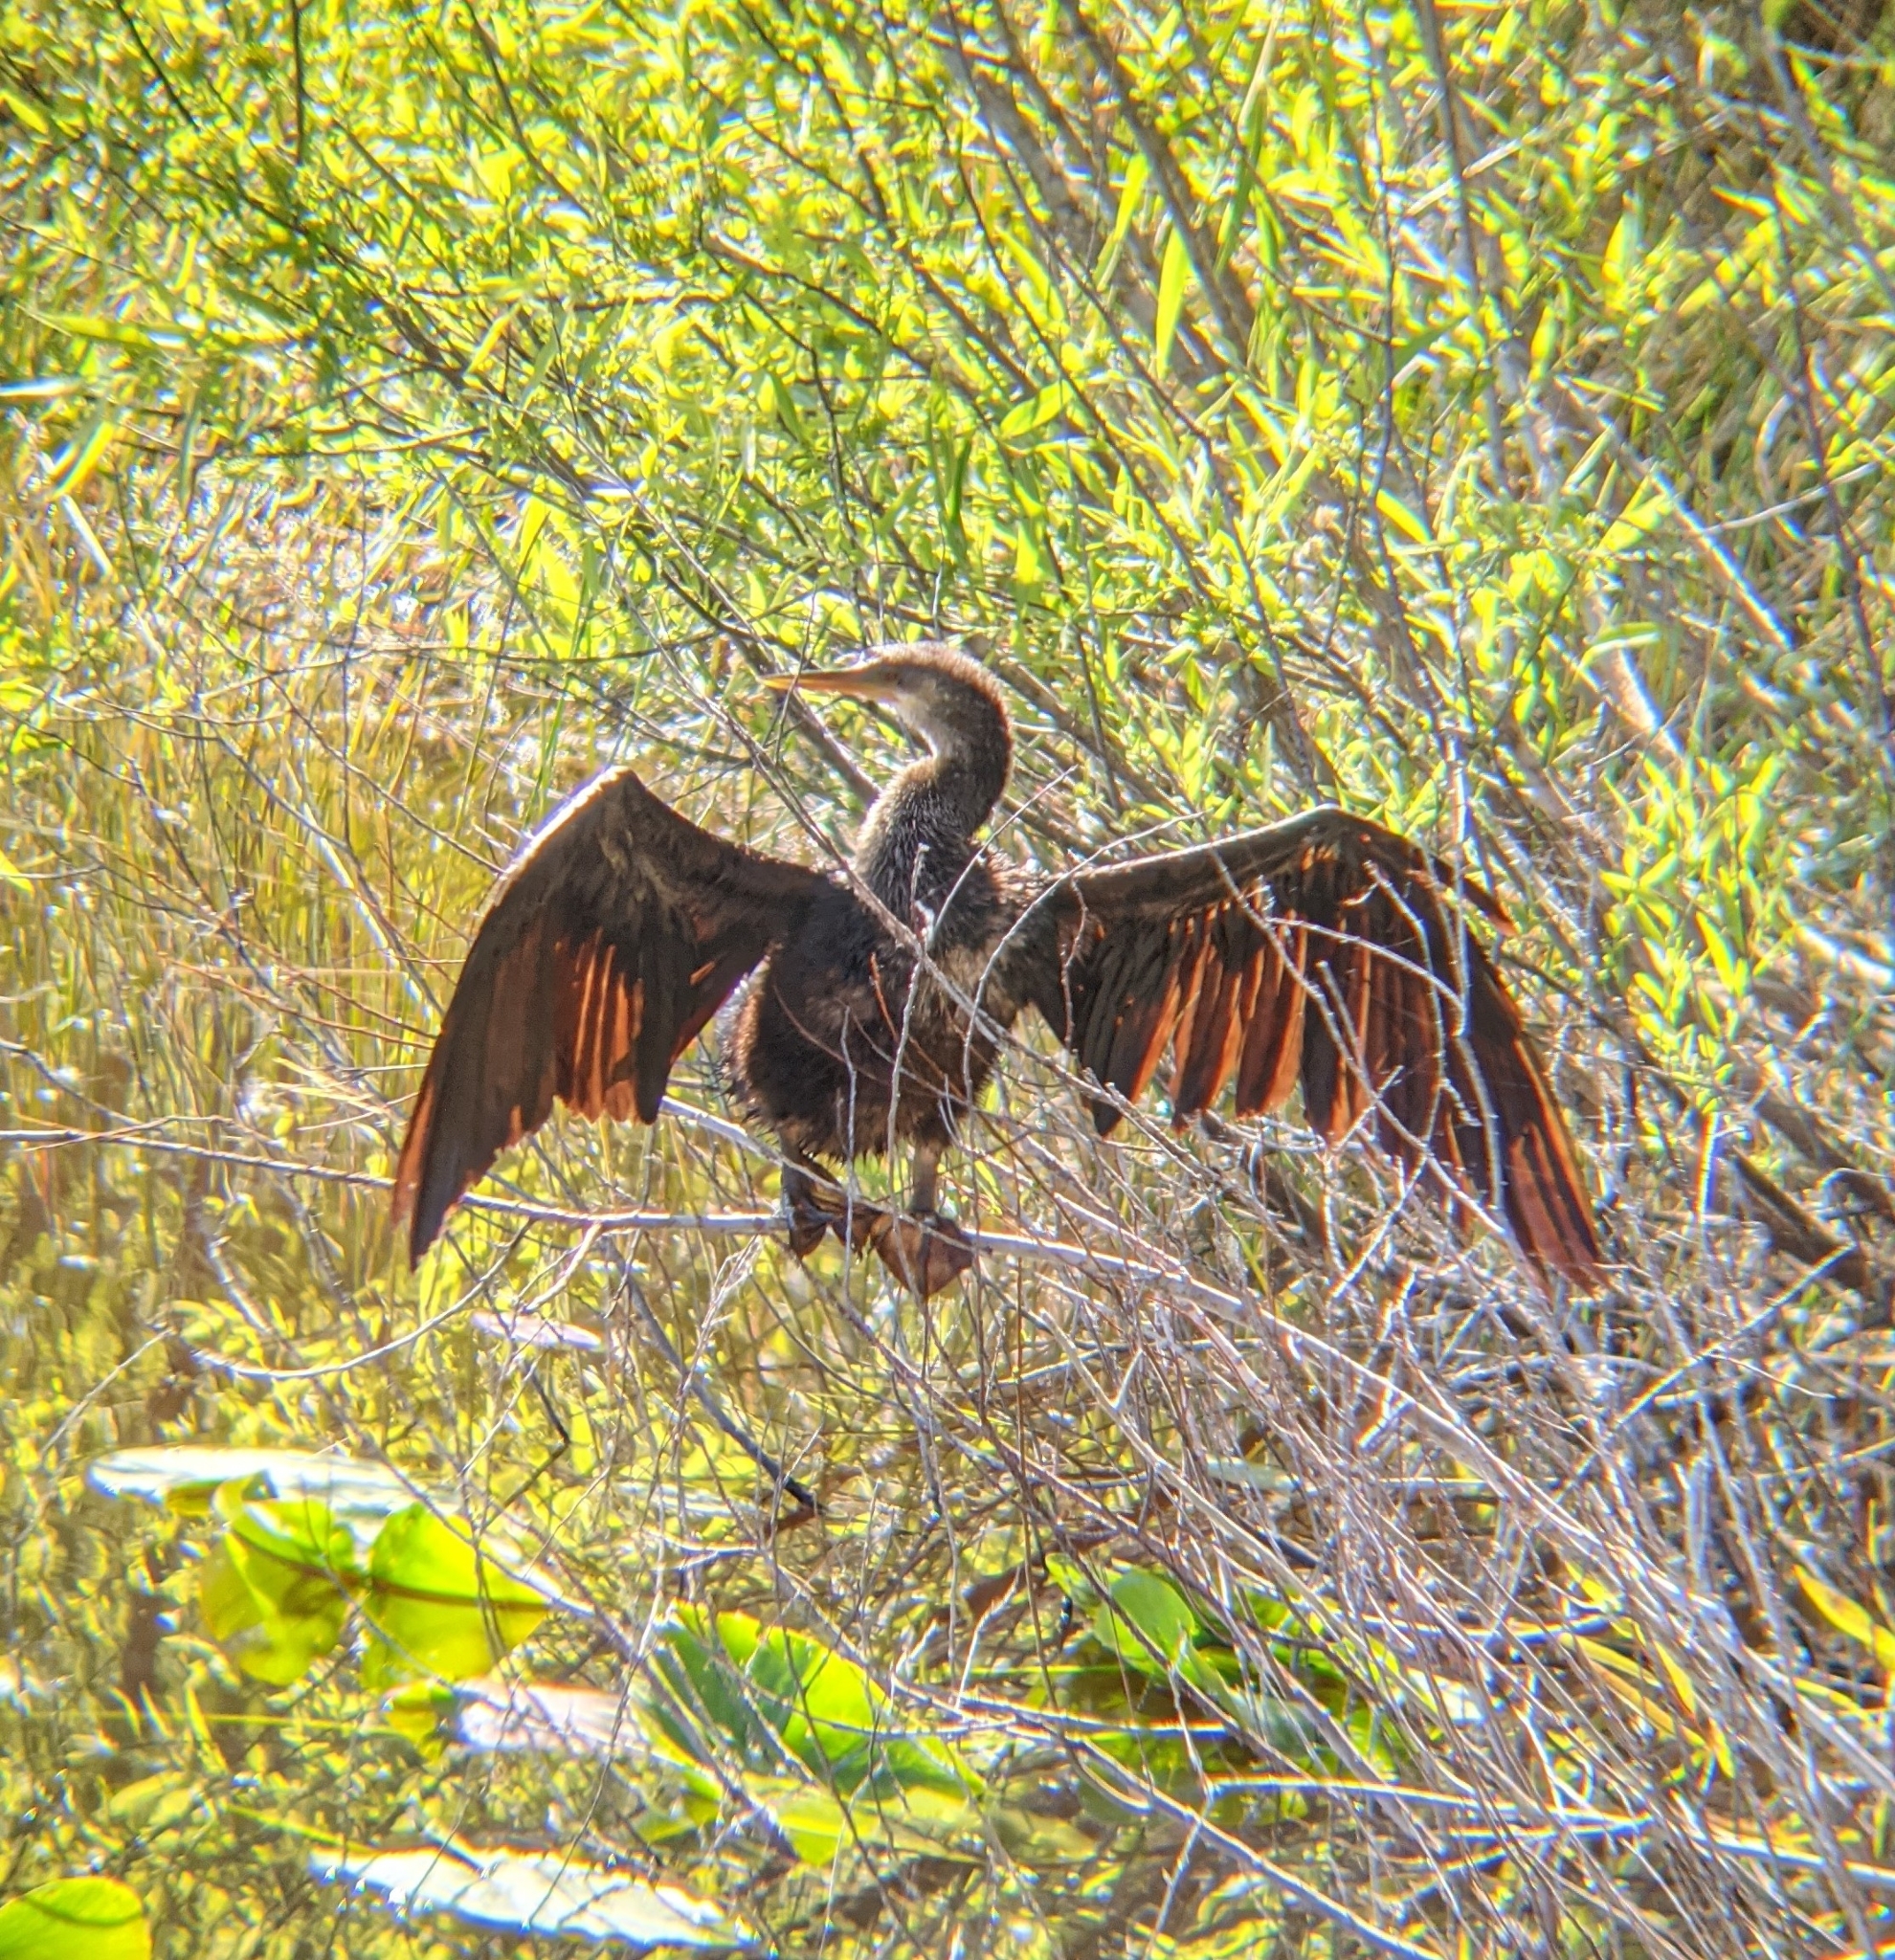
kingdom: Animalia
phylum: Chordata
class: Aves
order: Suliformes
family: Anhingidae
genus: Anhinga
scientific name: Anhinga anhinga
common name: Anhinga
